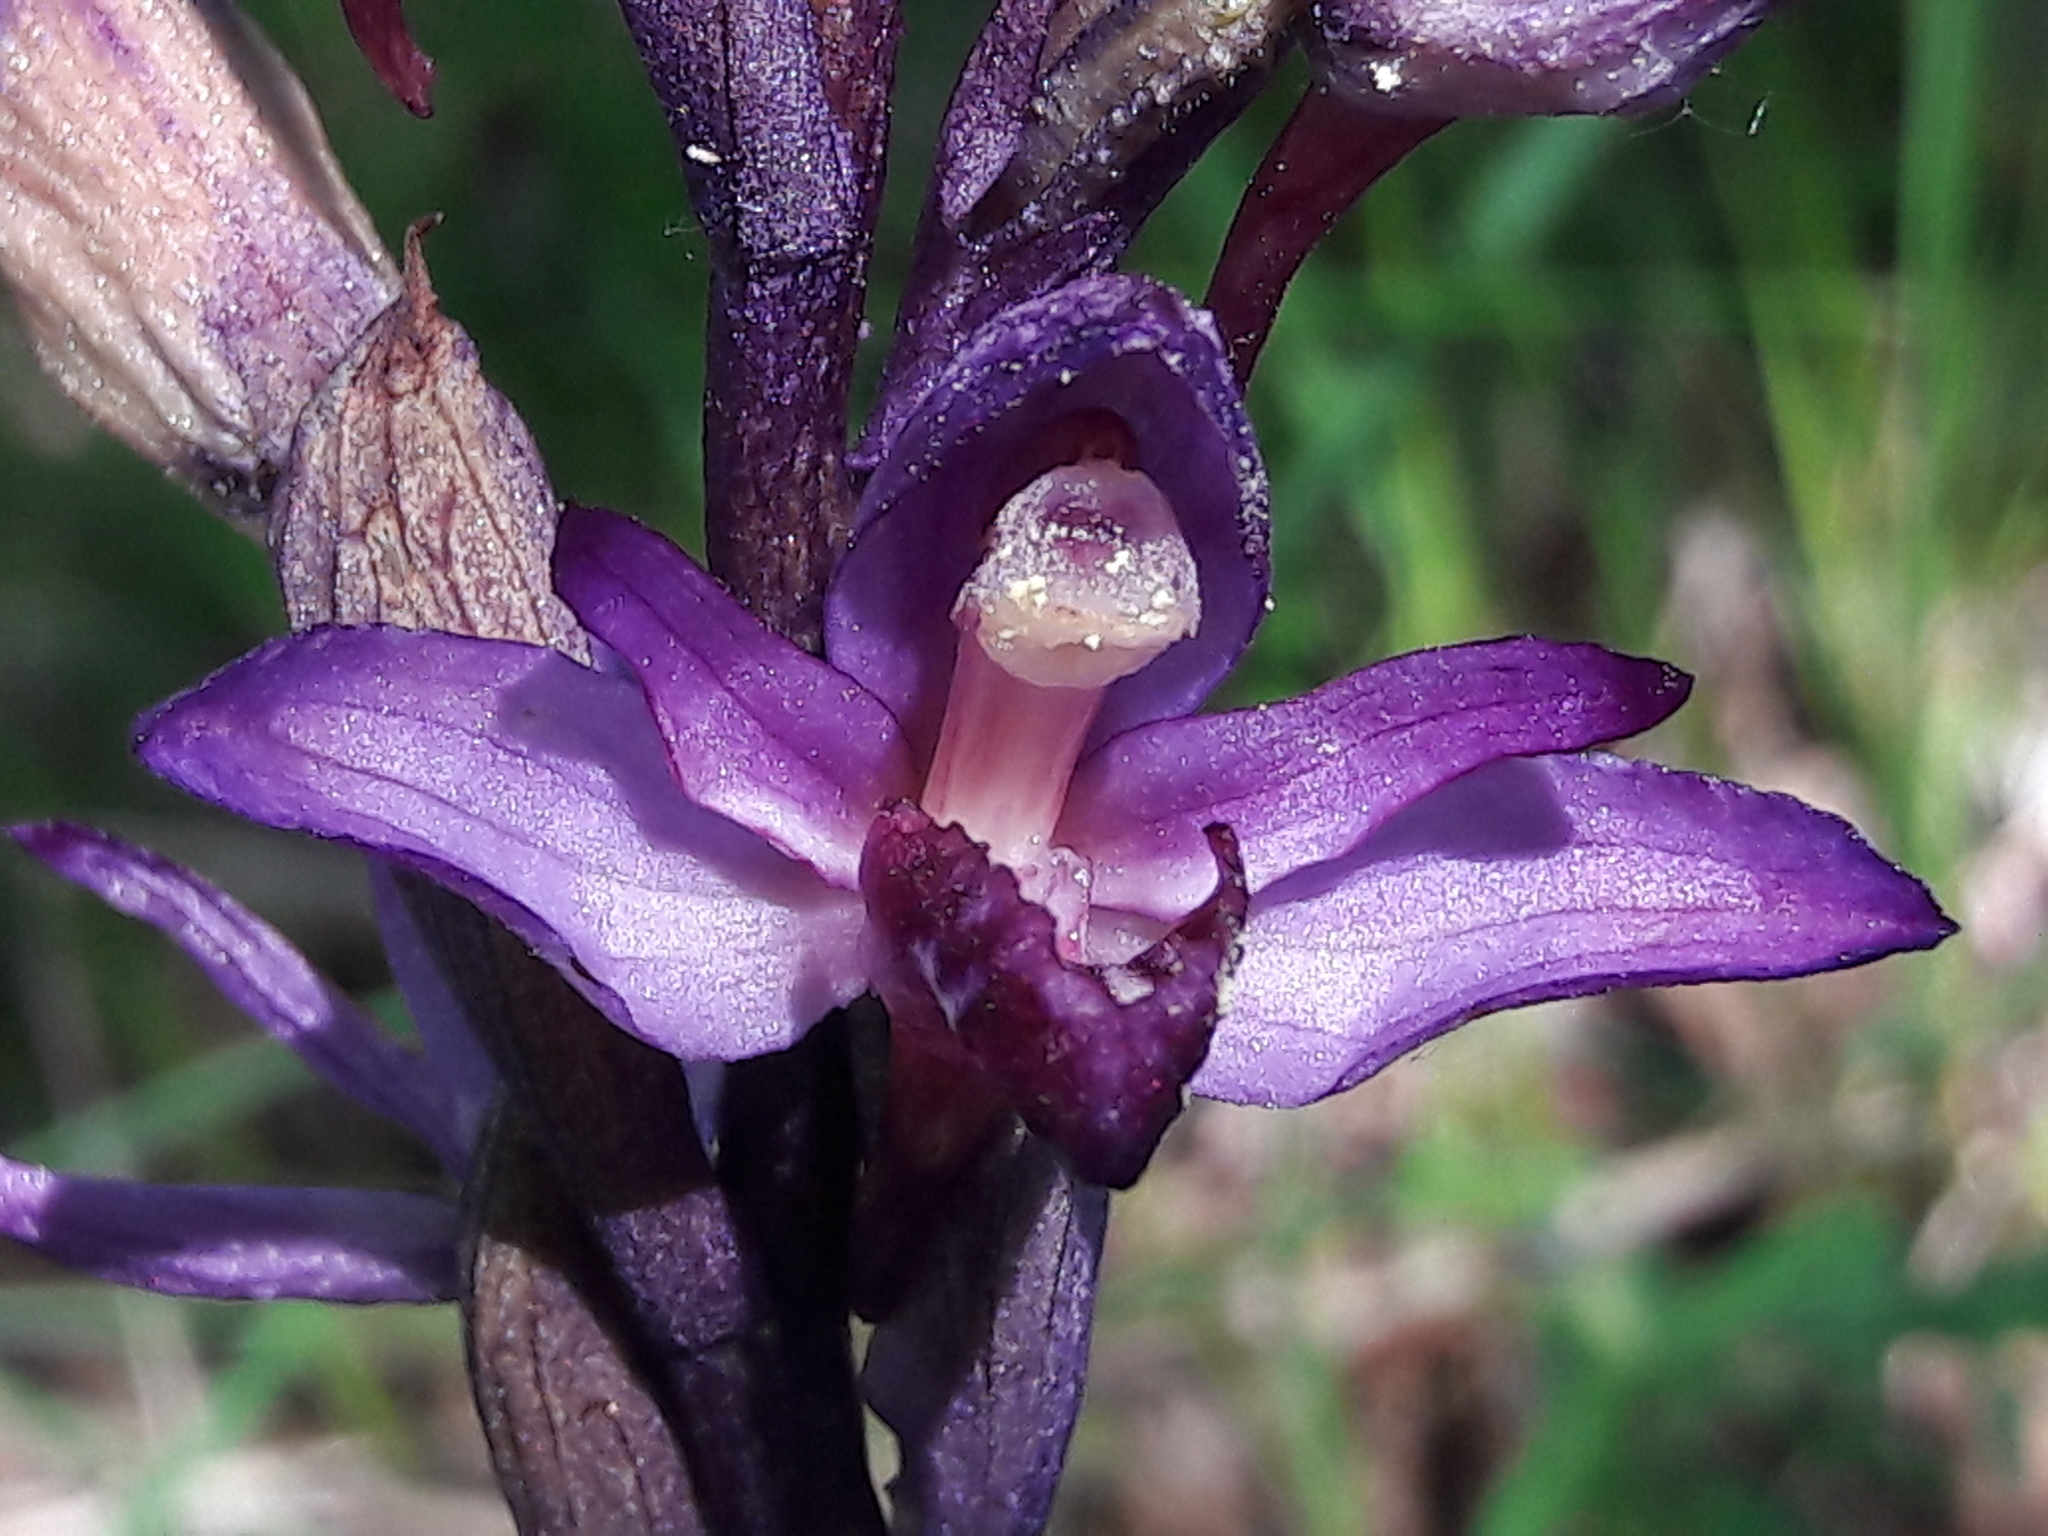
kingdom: Plantae
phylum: Tracheophyta
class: Liliopsida
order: Asparagales
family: Orchidaceae
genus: Limodorum
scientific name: Limodorum abortivum
